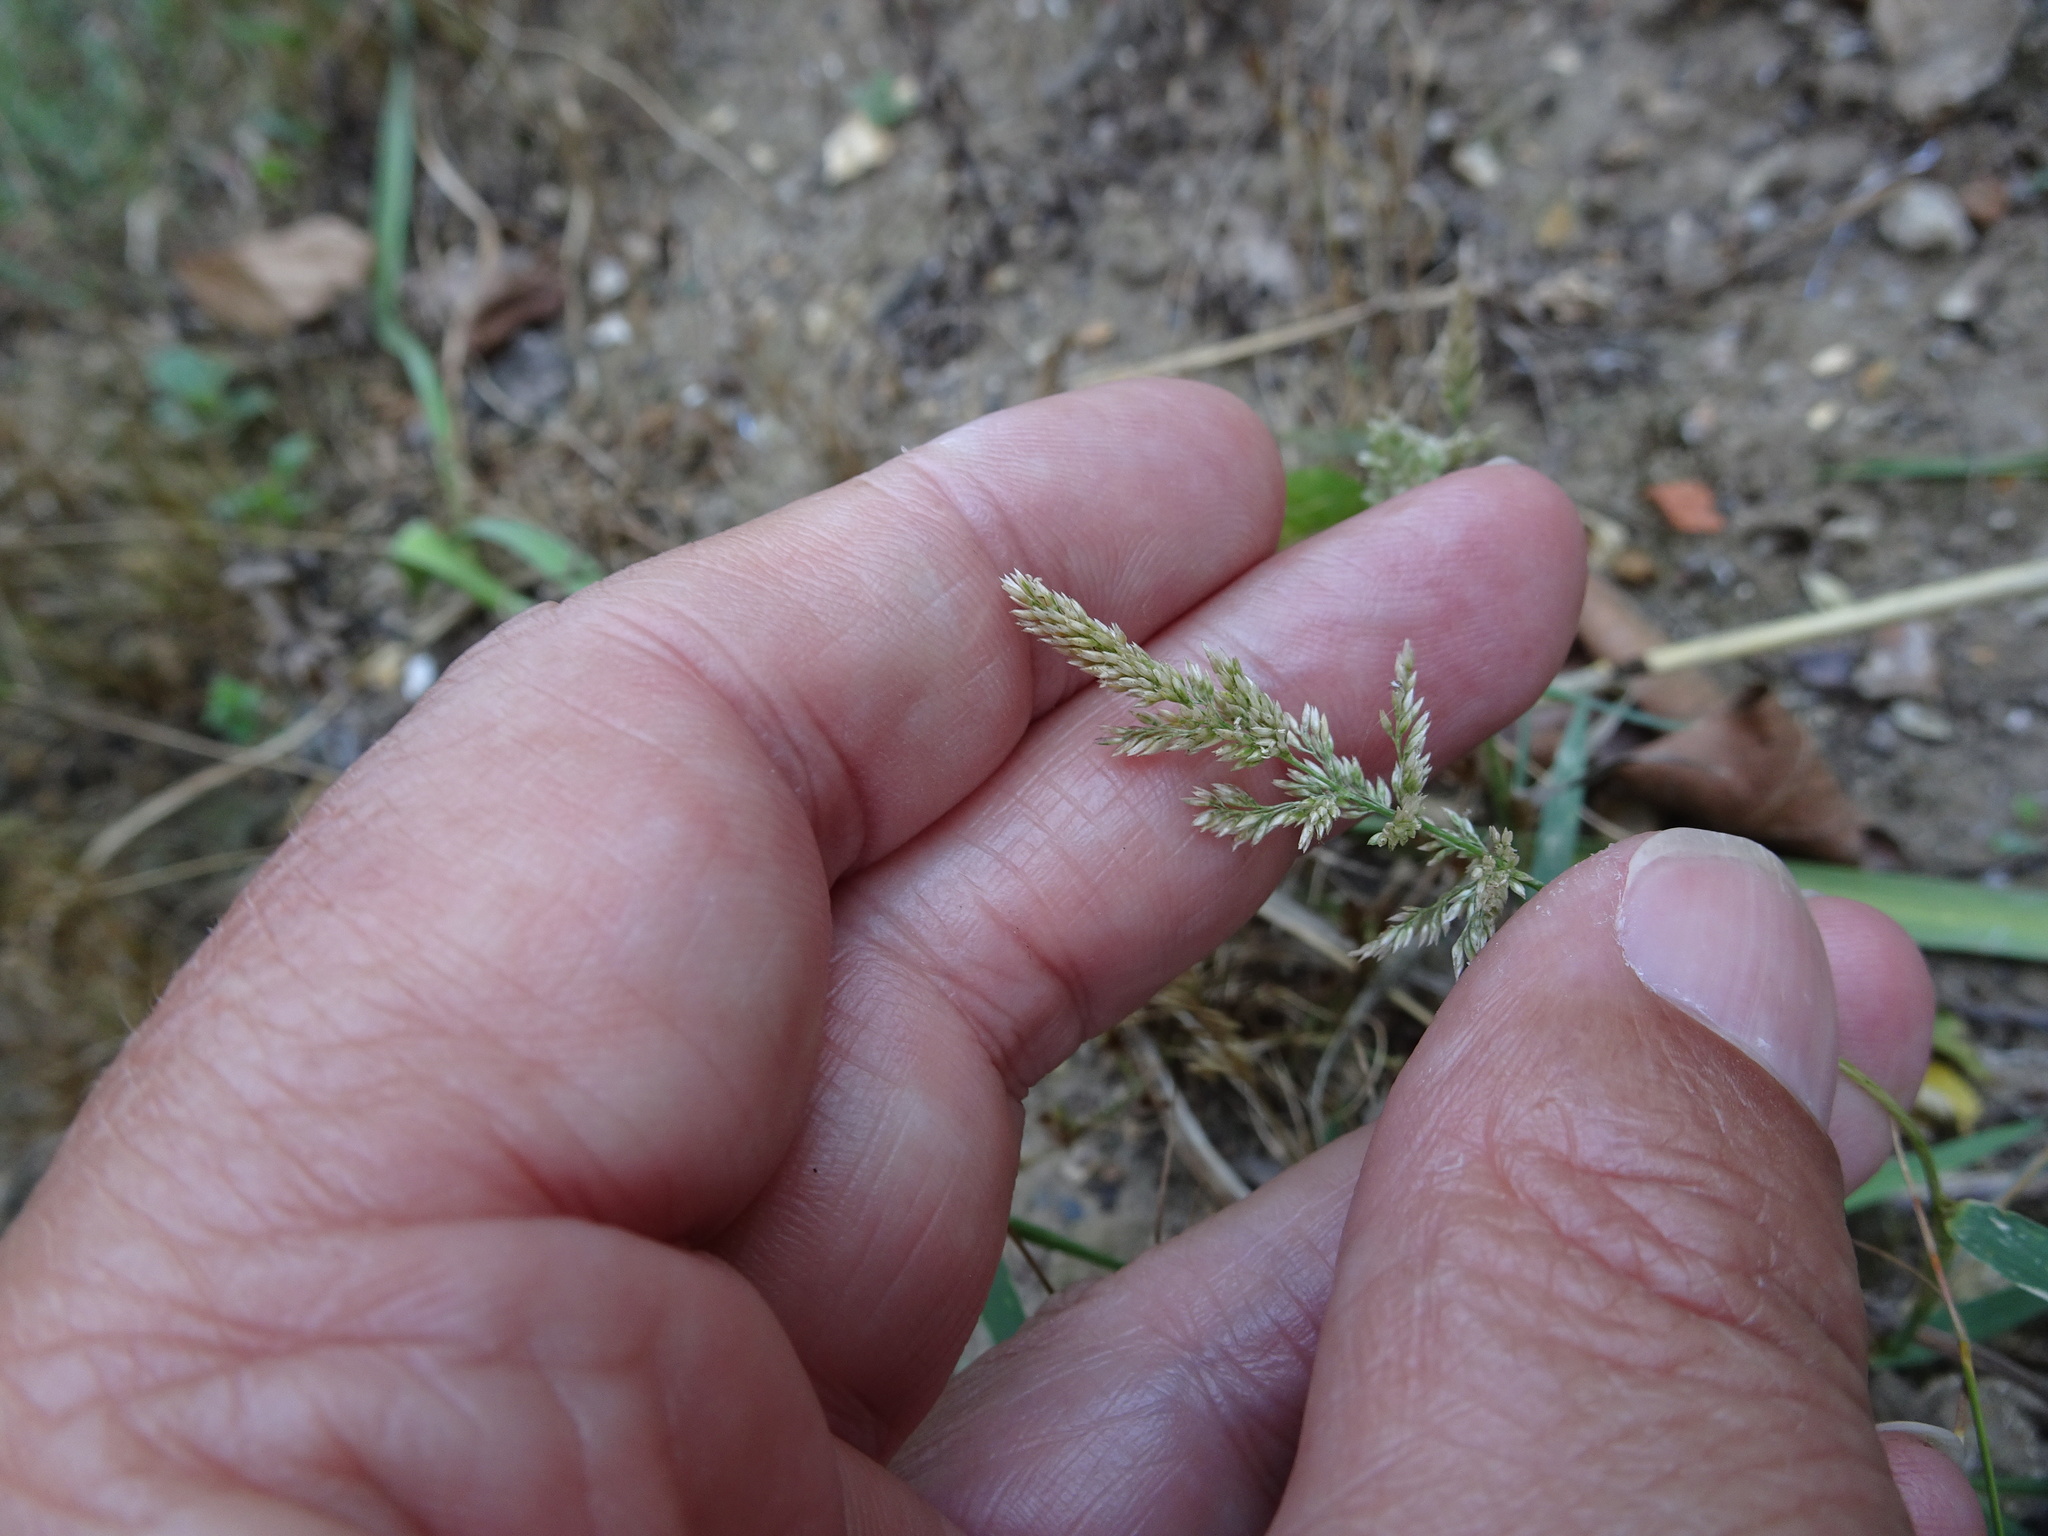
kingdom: Plantae
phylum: Tracheophyta
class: Liliopsida
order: Poales
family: Poaceae
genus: Polypogon
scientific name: Polypogon viridis
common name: Water bent
